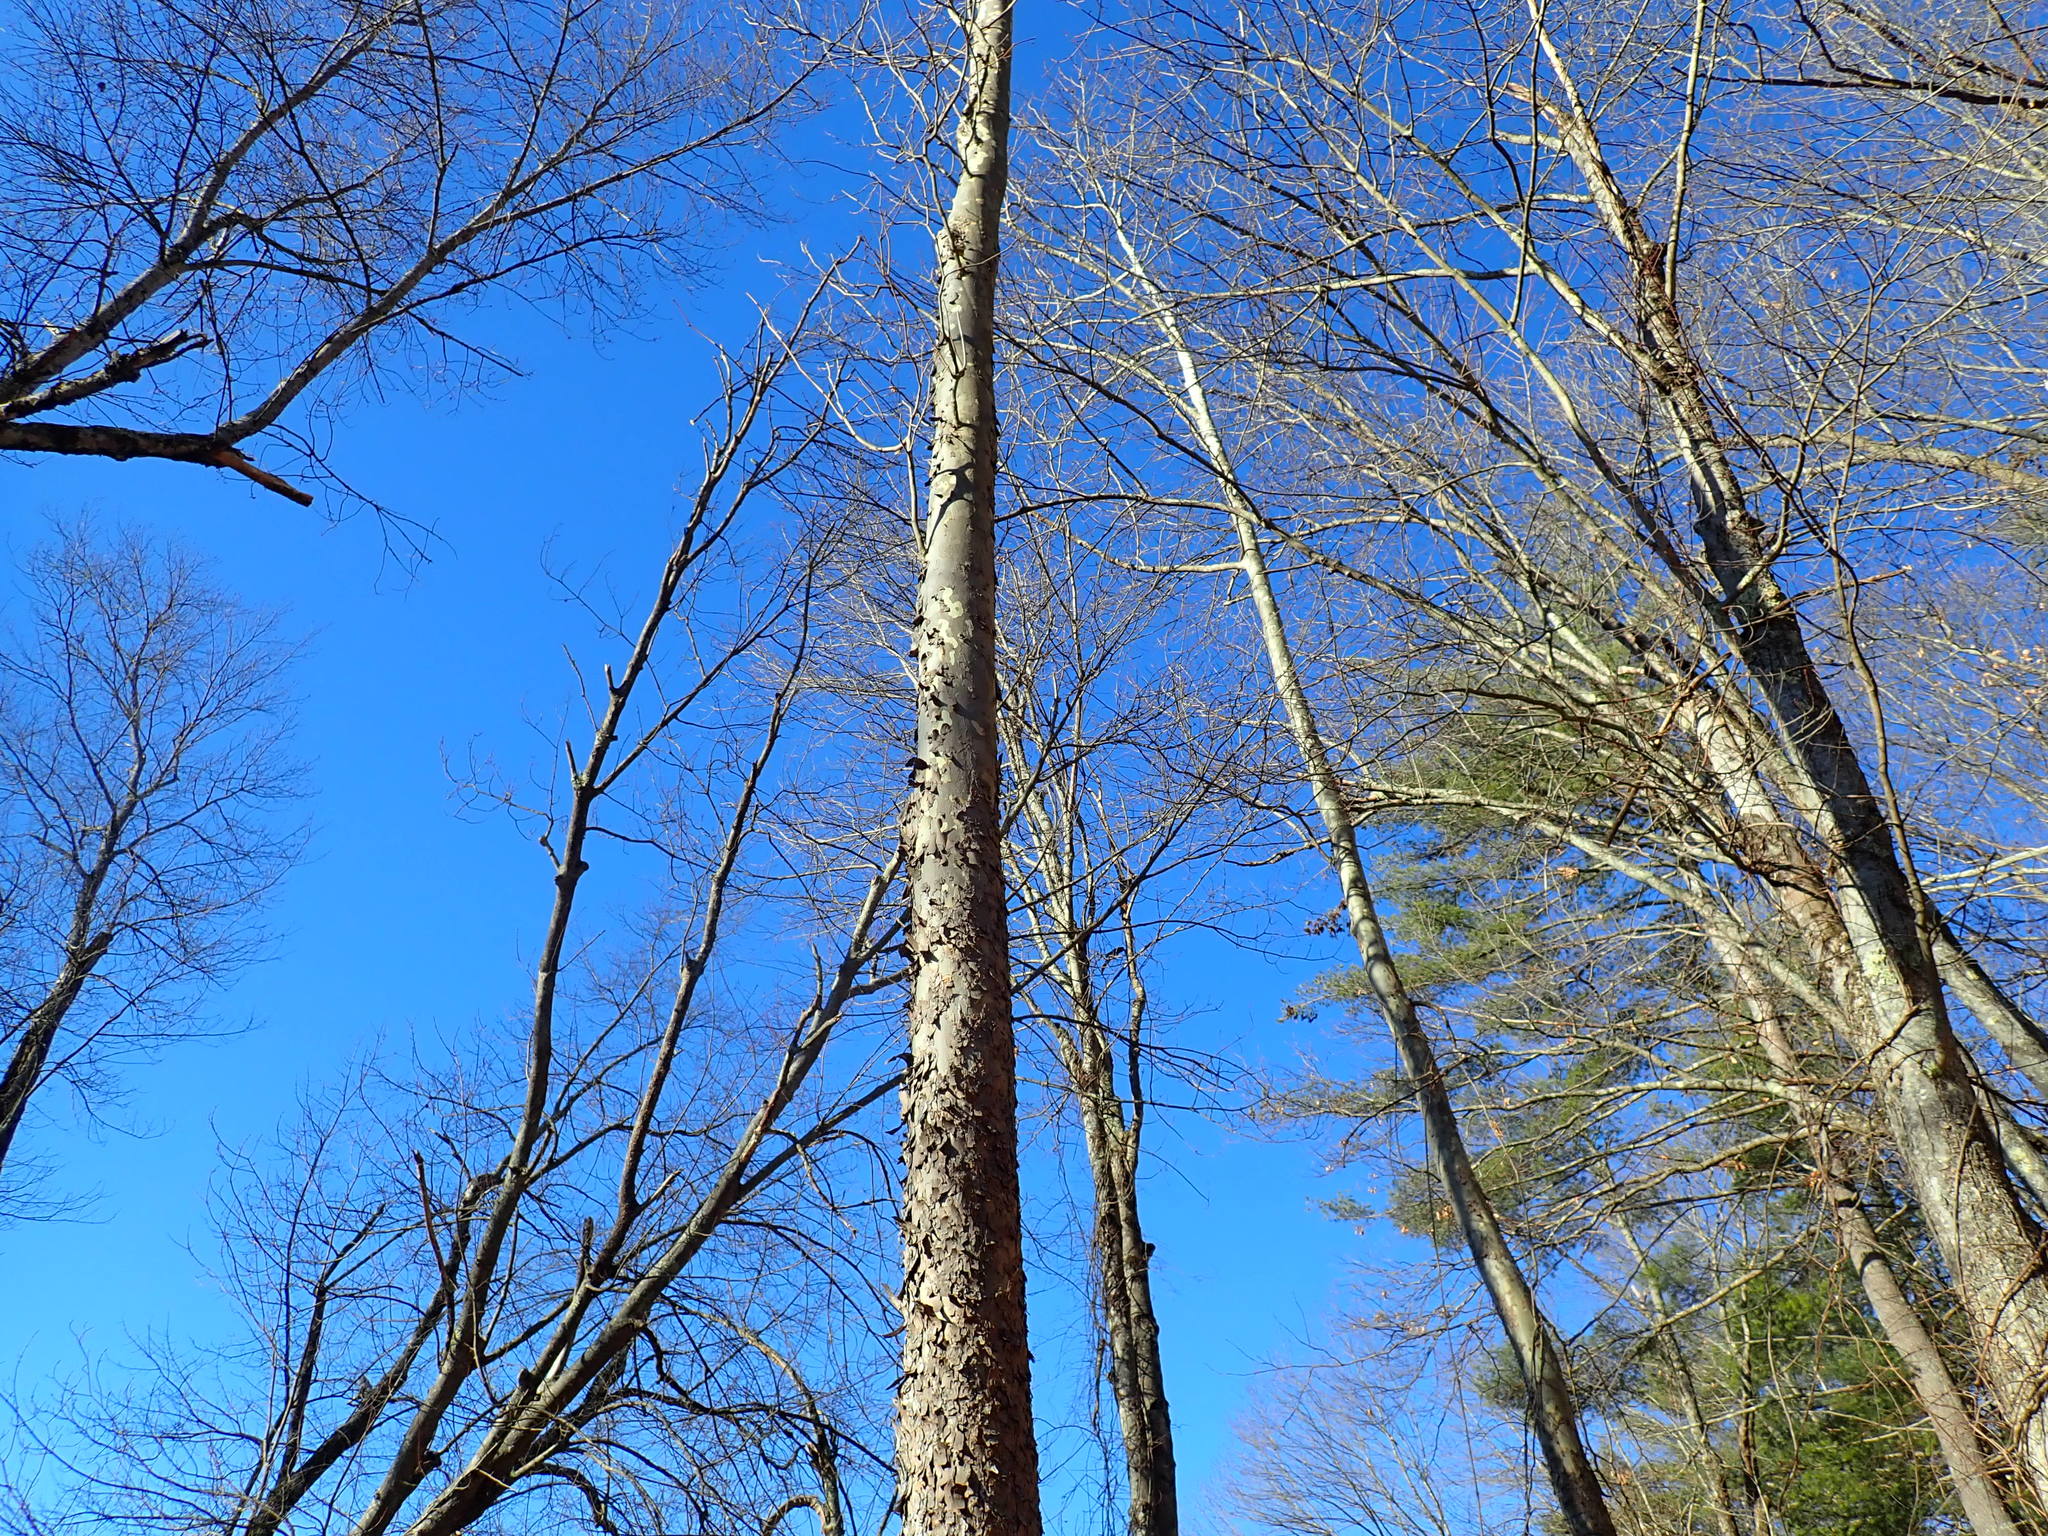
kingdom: Plantae
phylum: Tracheophyta
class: Magnoliopsida
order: Proteales
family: Platanaceae
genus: Platanus
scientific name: Platanus occidentalis
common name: American sycamore
